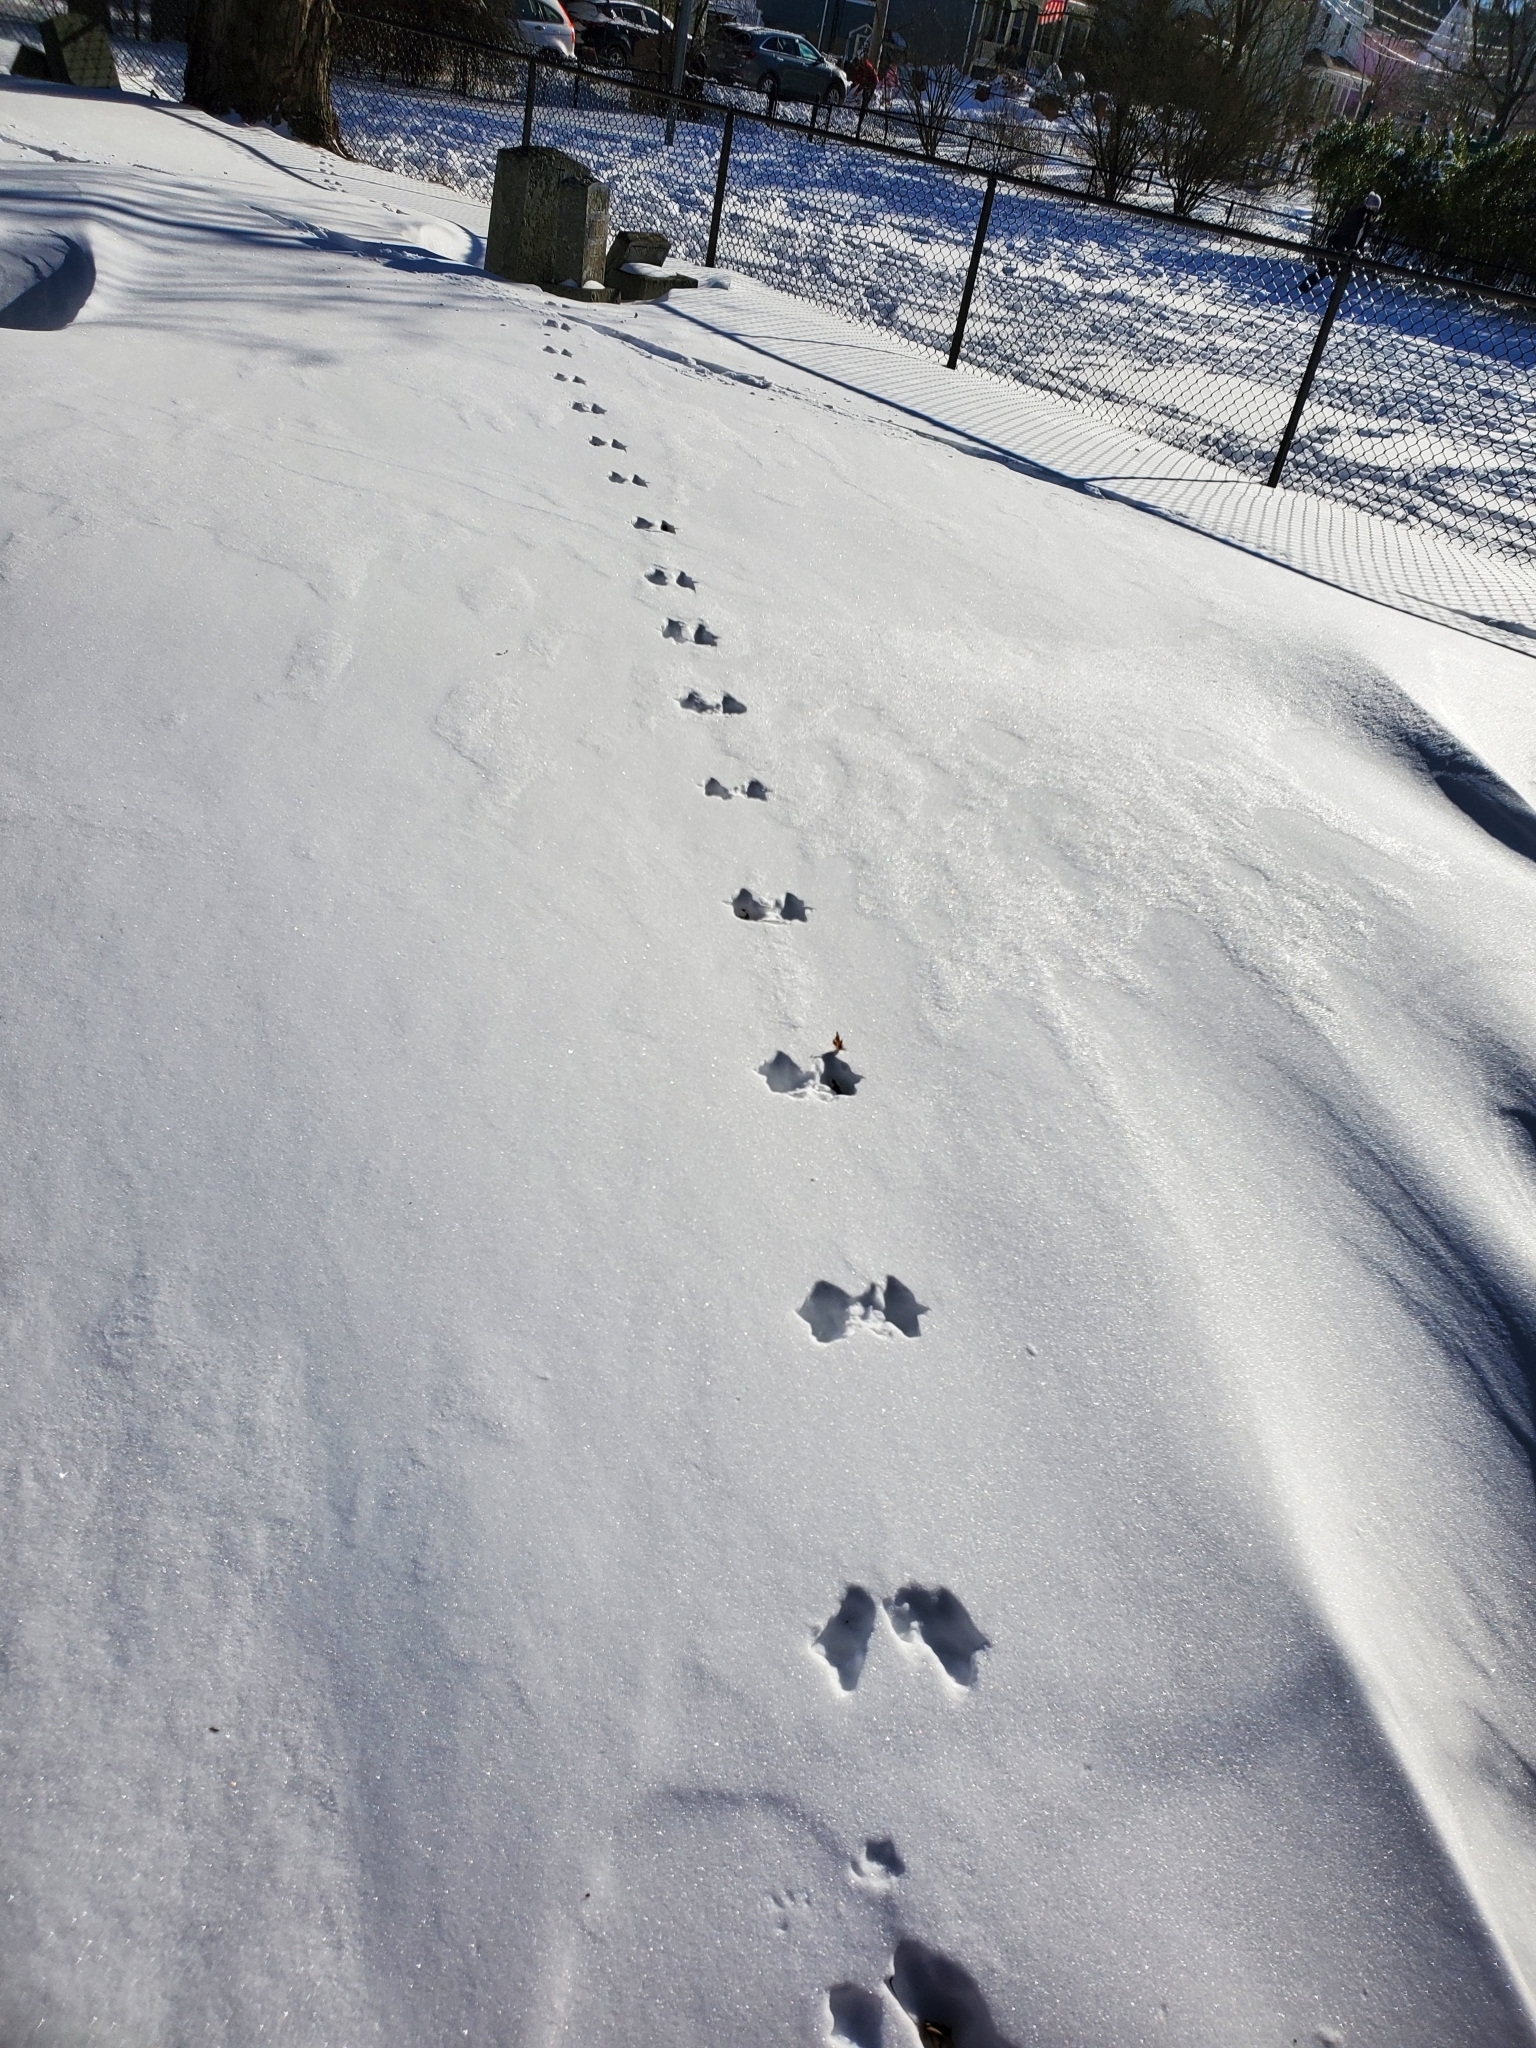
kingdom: Animalia
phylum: Chordata
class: Mammalia
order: Carnivora
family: Mustelidae
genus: Pekania
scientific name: Pekania pennanti
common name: Fisher
